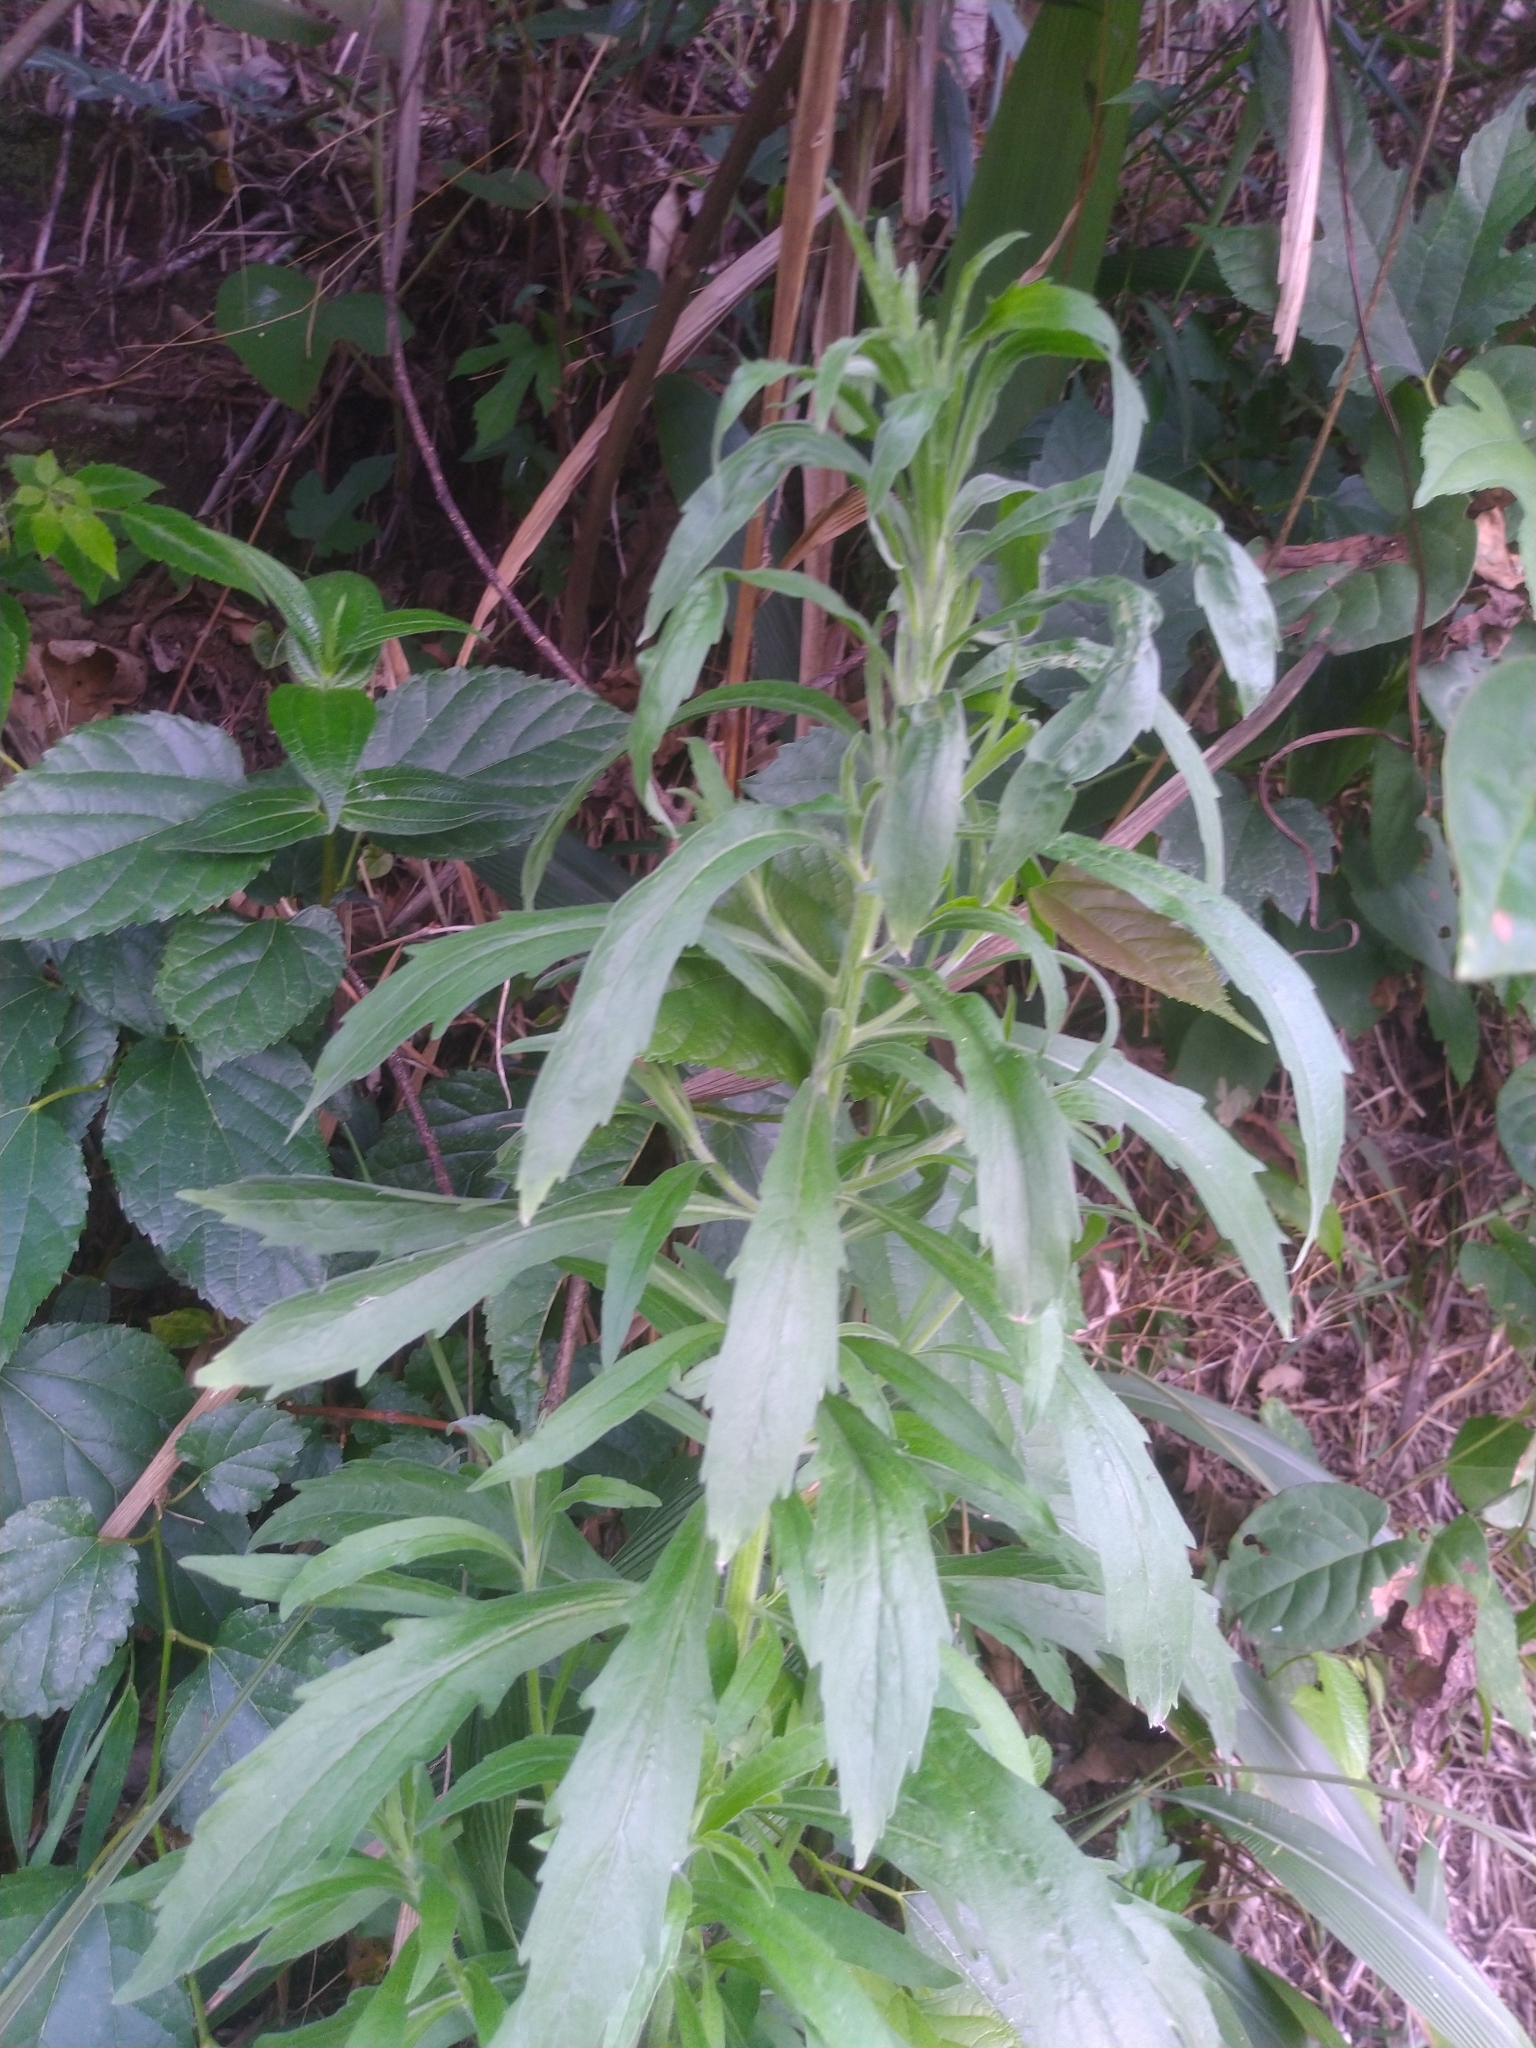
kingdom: Plantae
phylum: Tracheophyta
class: Magnoliopsida
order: Asterales
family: Asteraceae
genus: Erigeron
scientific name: Erigeron sumatrensis
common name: Daisy
